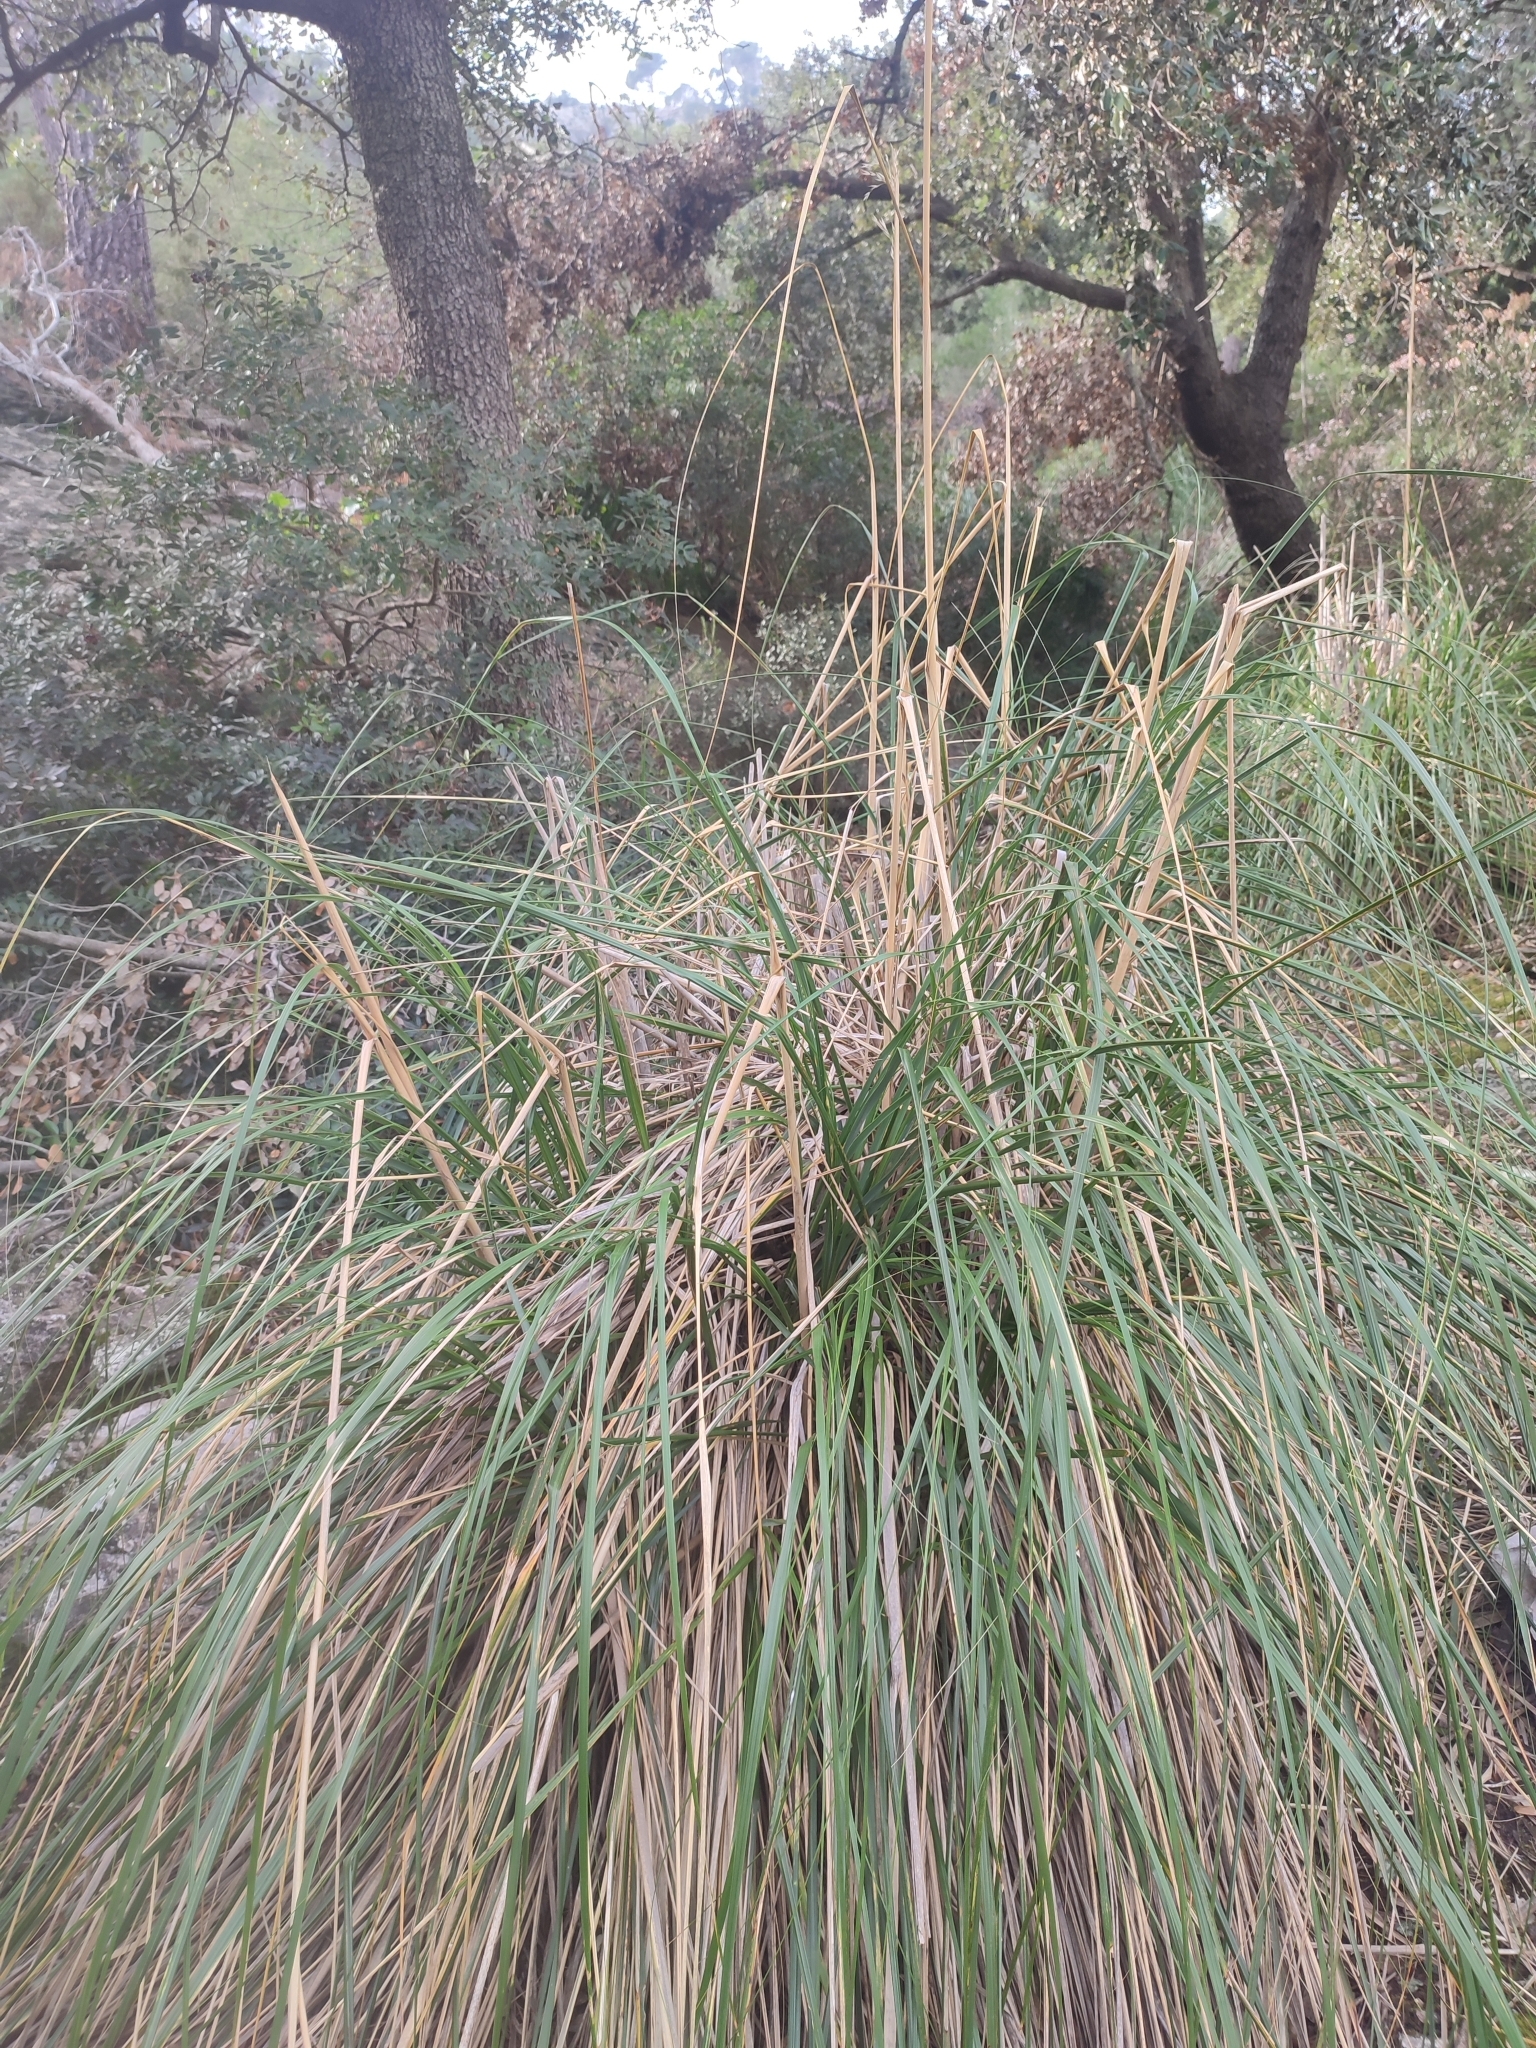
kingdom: Plantae
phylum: Tracheophyta
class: Liliopsida
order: Poales
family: Poaceae
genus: Ampelodesmos
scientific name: Ampelodesmos mauritanicus
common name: Mauritanian grass
